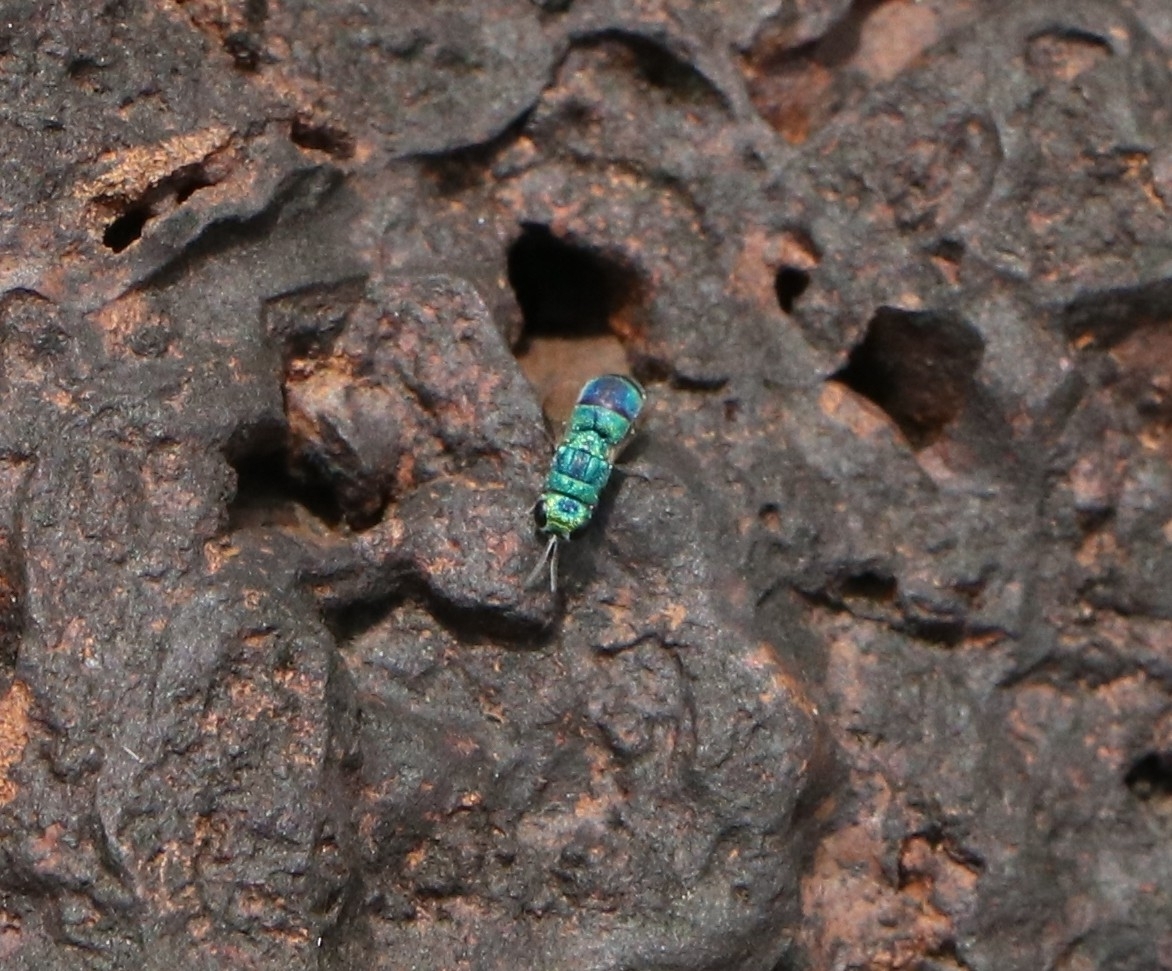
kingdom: Animalia
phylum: Arthropoda
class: Insecta
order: Hymenoptera
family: Chrysididae
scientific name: Chrysididae
